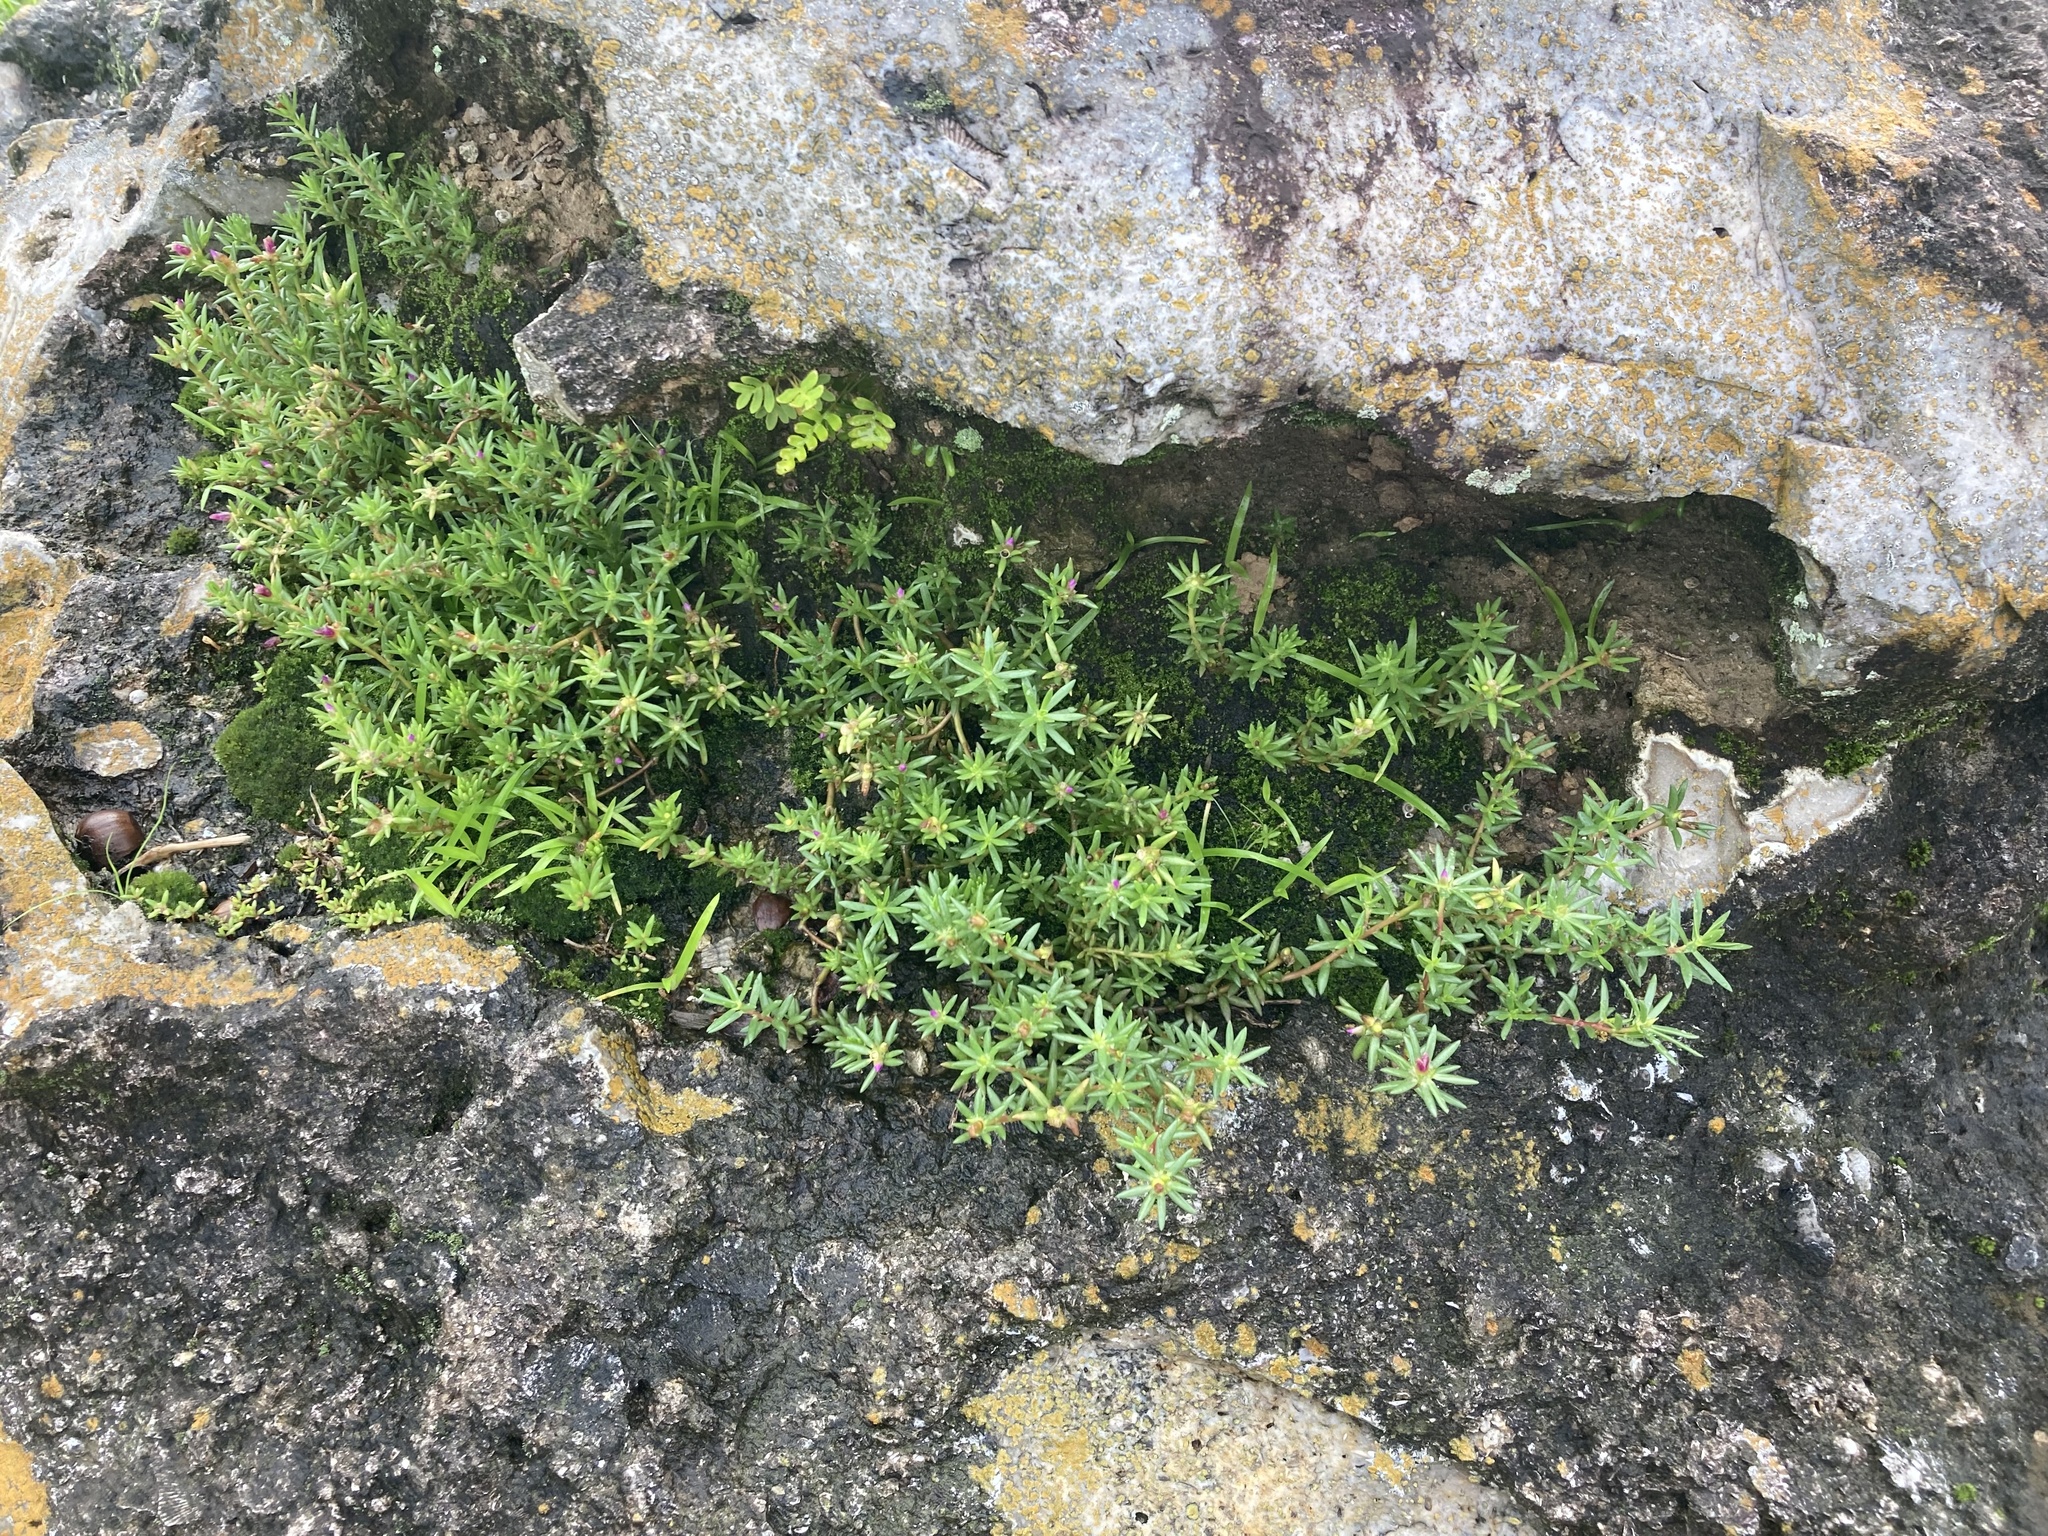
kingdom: Plantae
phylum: Tracheophyta
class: Magnoliopsida
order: Caryophyllales
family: Portulacaceae
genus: Portulaca
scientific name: Portulaca pilosa
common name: Kiss me quick
